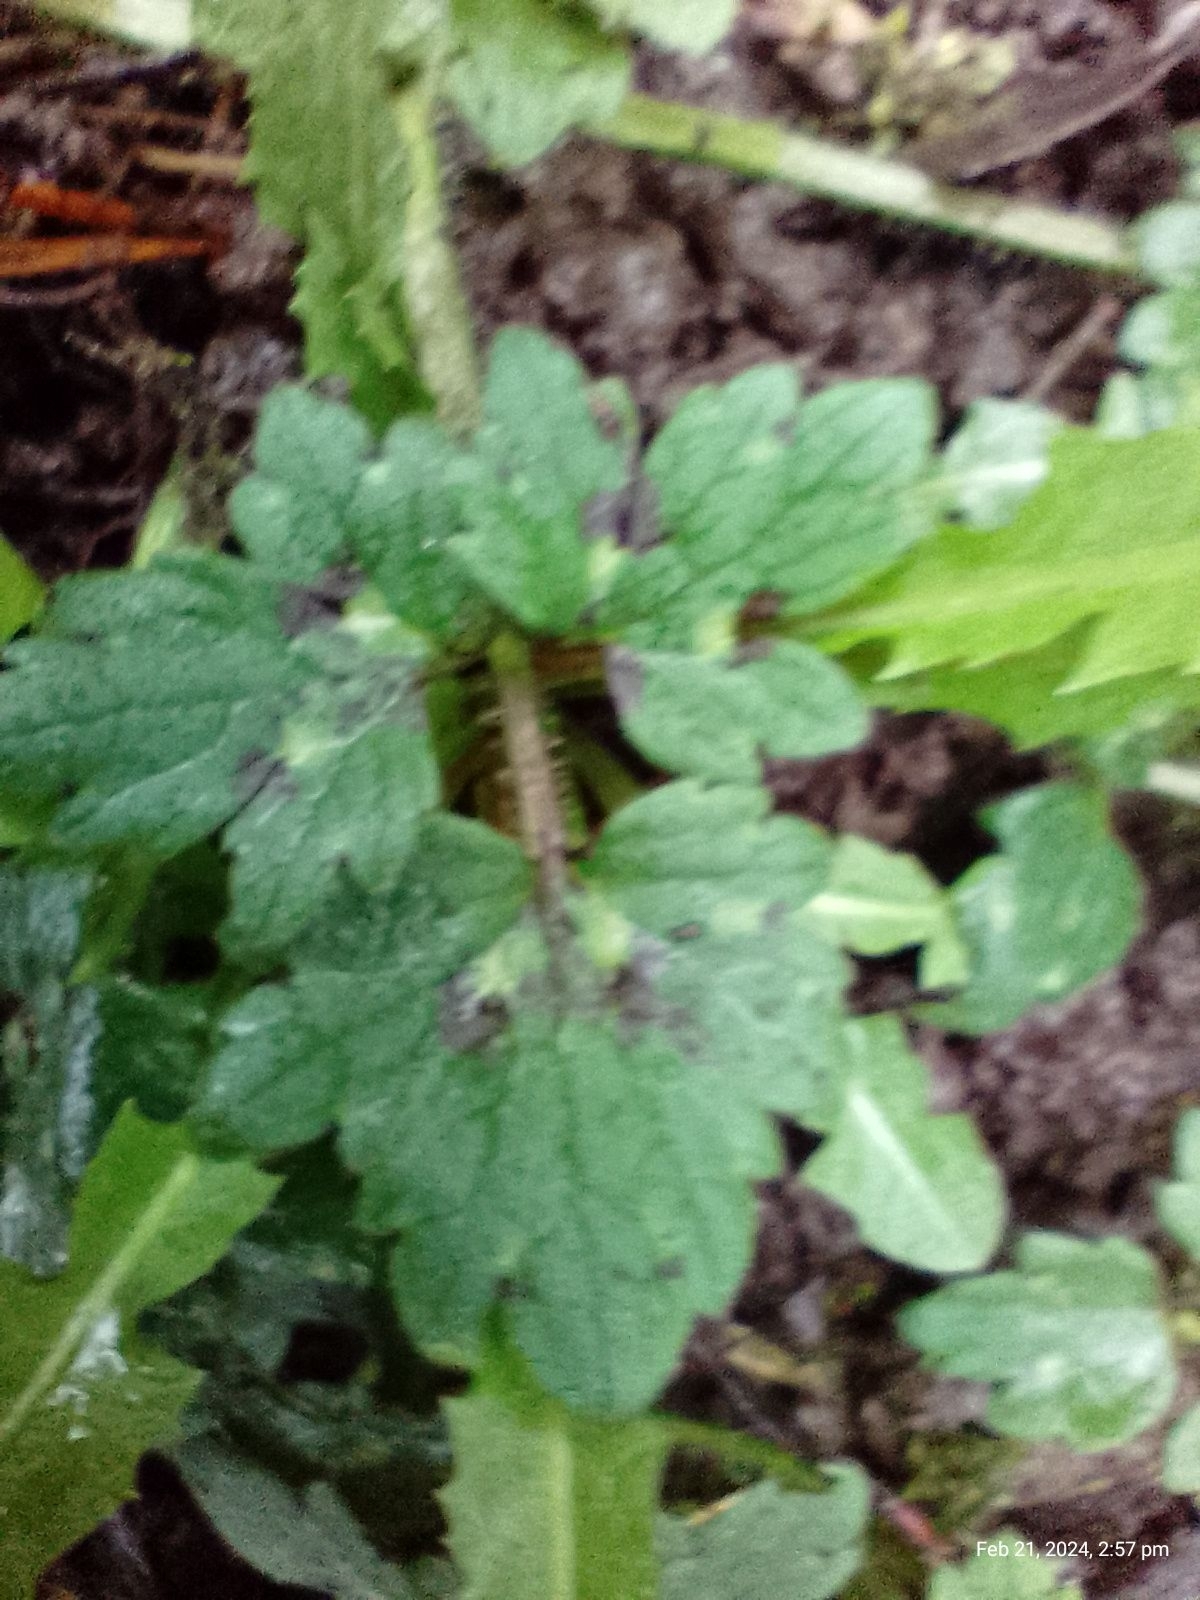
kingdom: Plantae
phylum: Tracheophyta
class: Magnoliopsida
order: Ranunculales
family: Ranunculaceae
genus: Ranunculus
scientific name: Ranunculus repens
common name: Creeping buttercup
